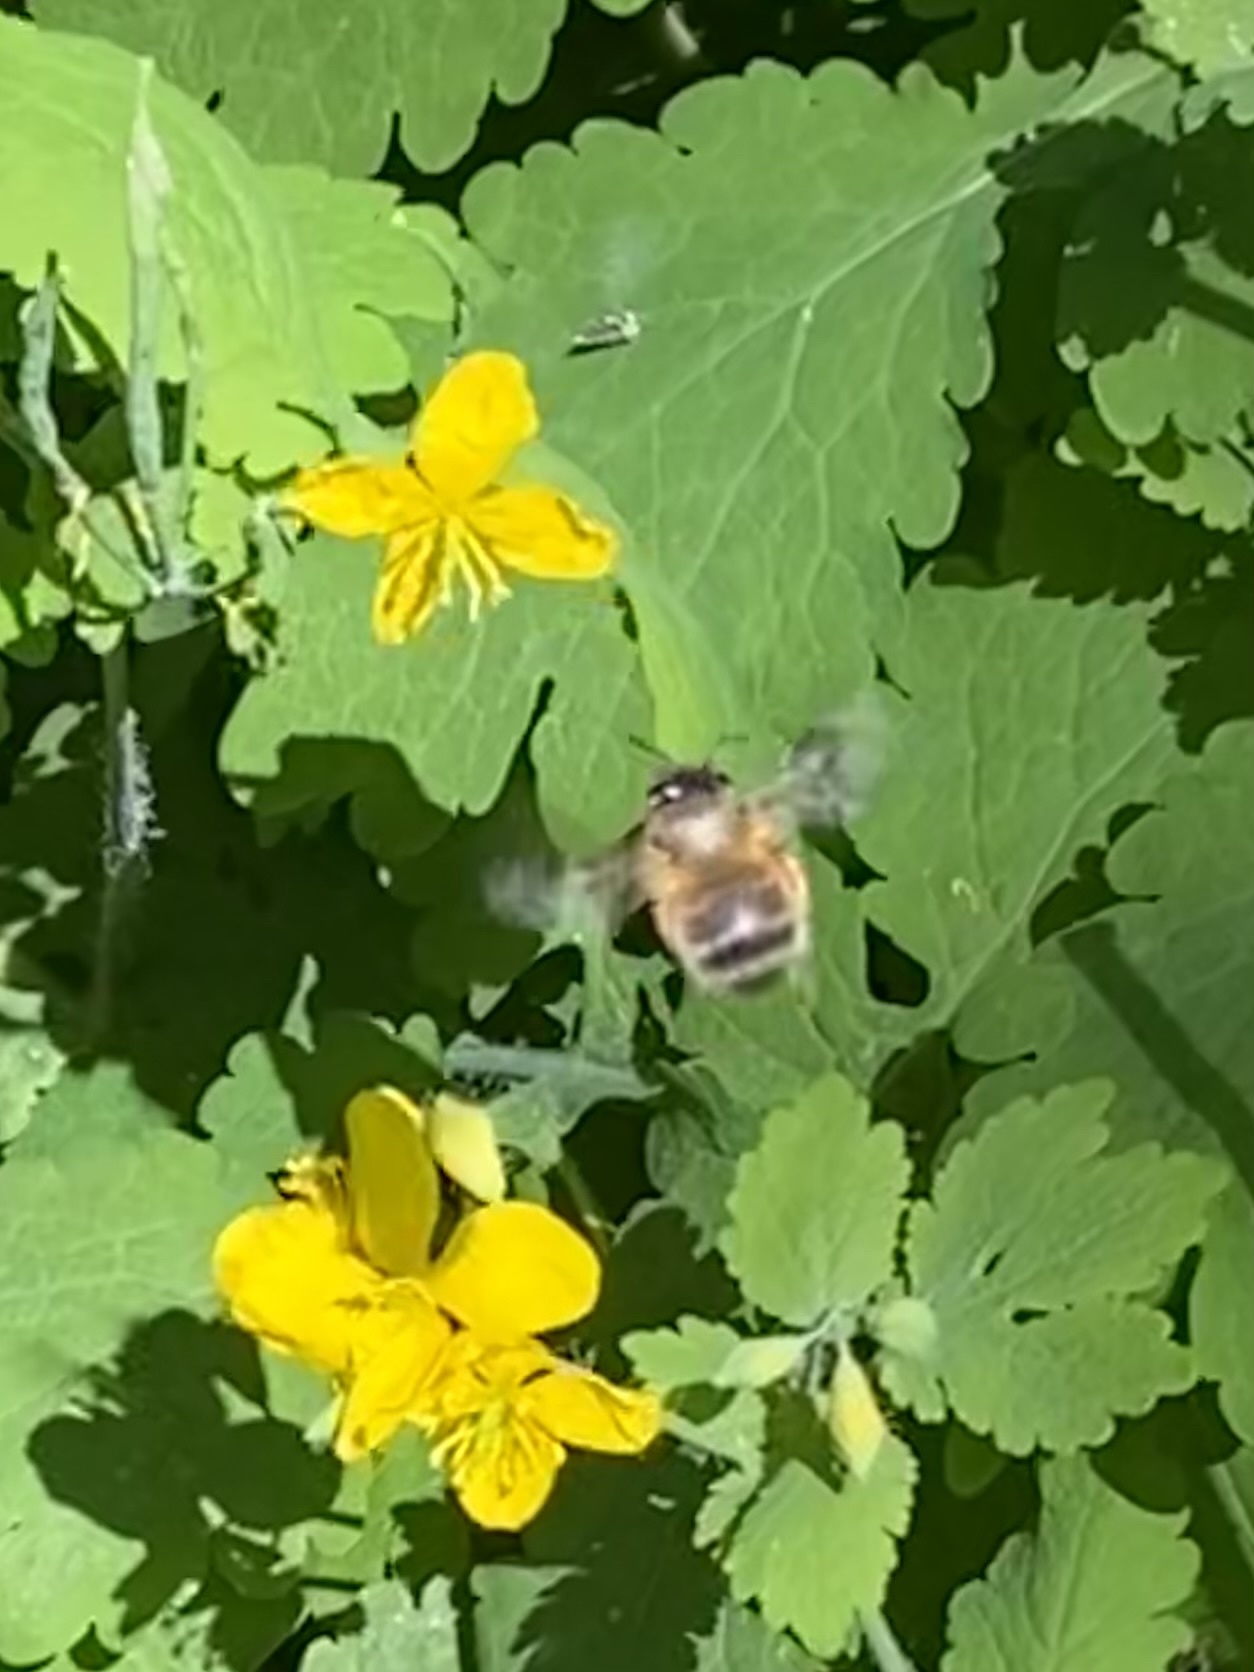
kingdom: Animalia
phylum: Arthropoda
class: Insecta
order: Hymenoptera
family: Apidae
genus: Anthophora
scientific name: Anthophora
